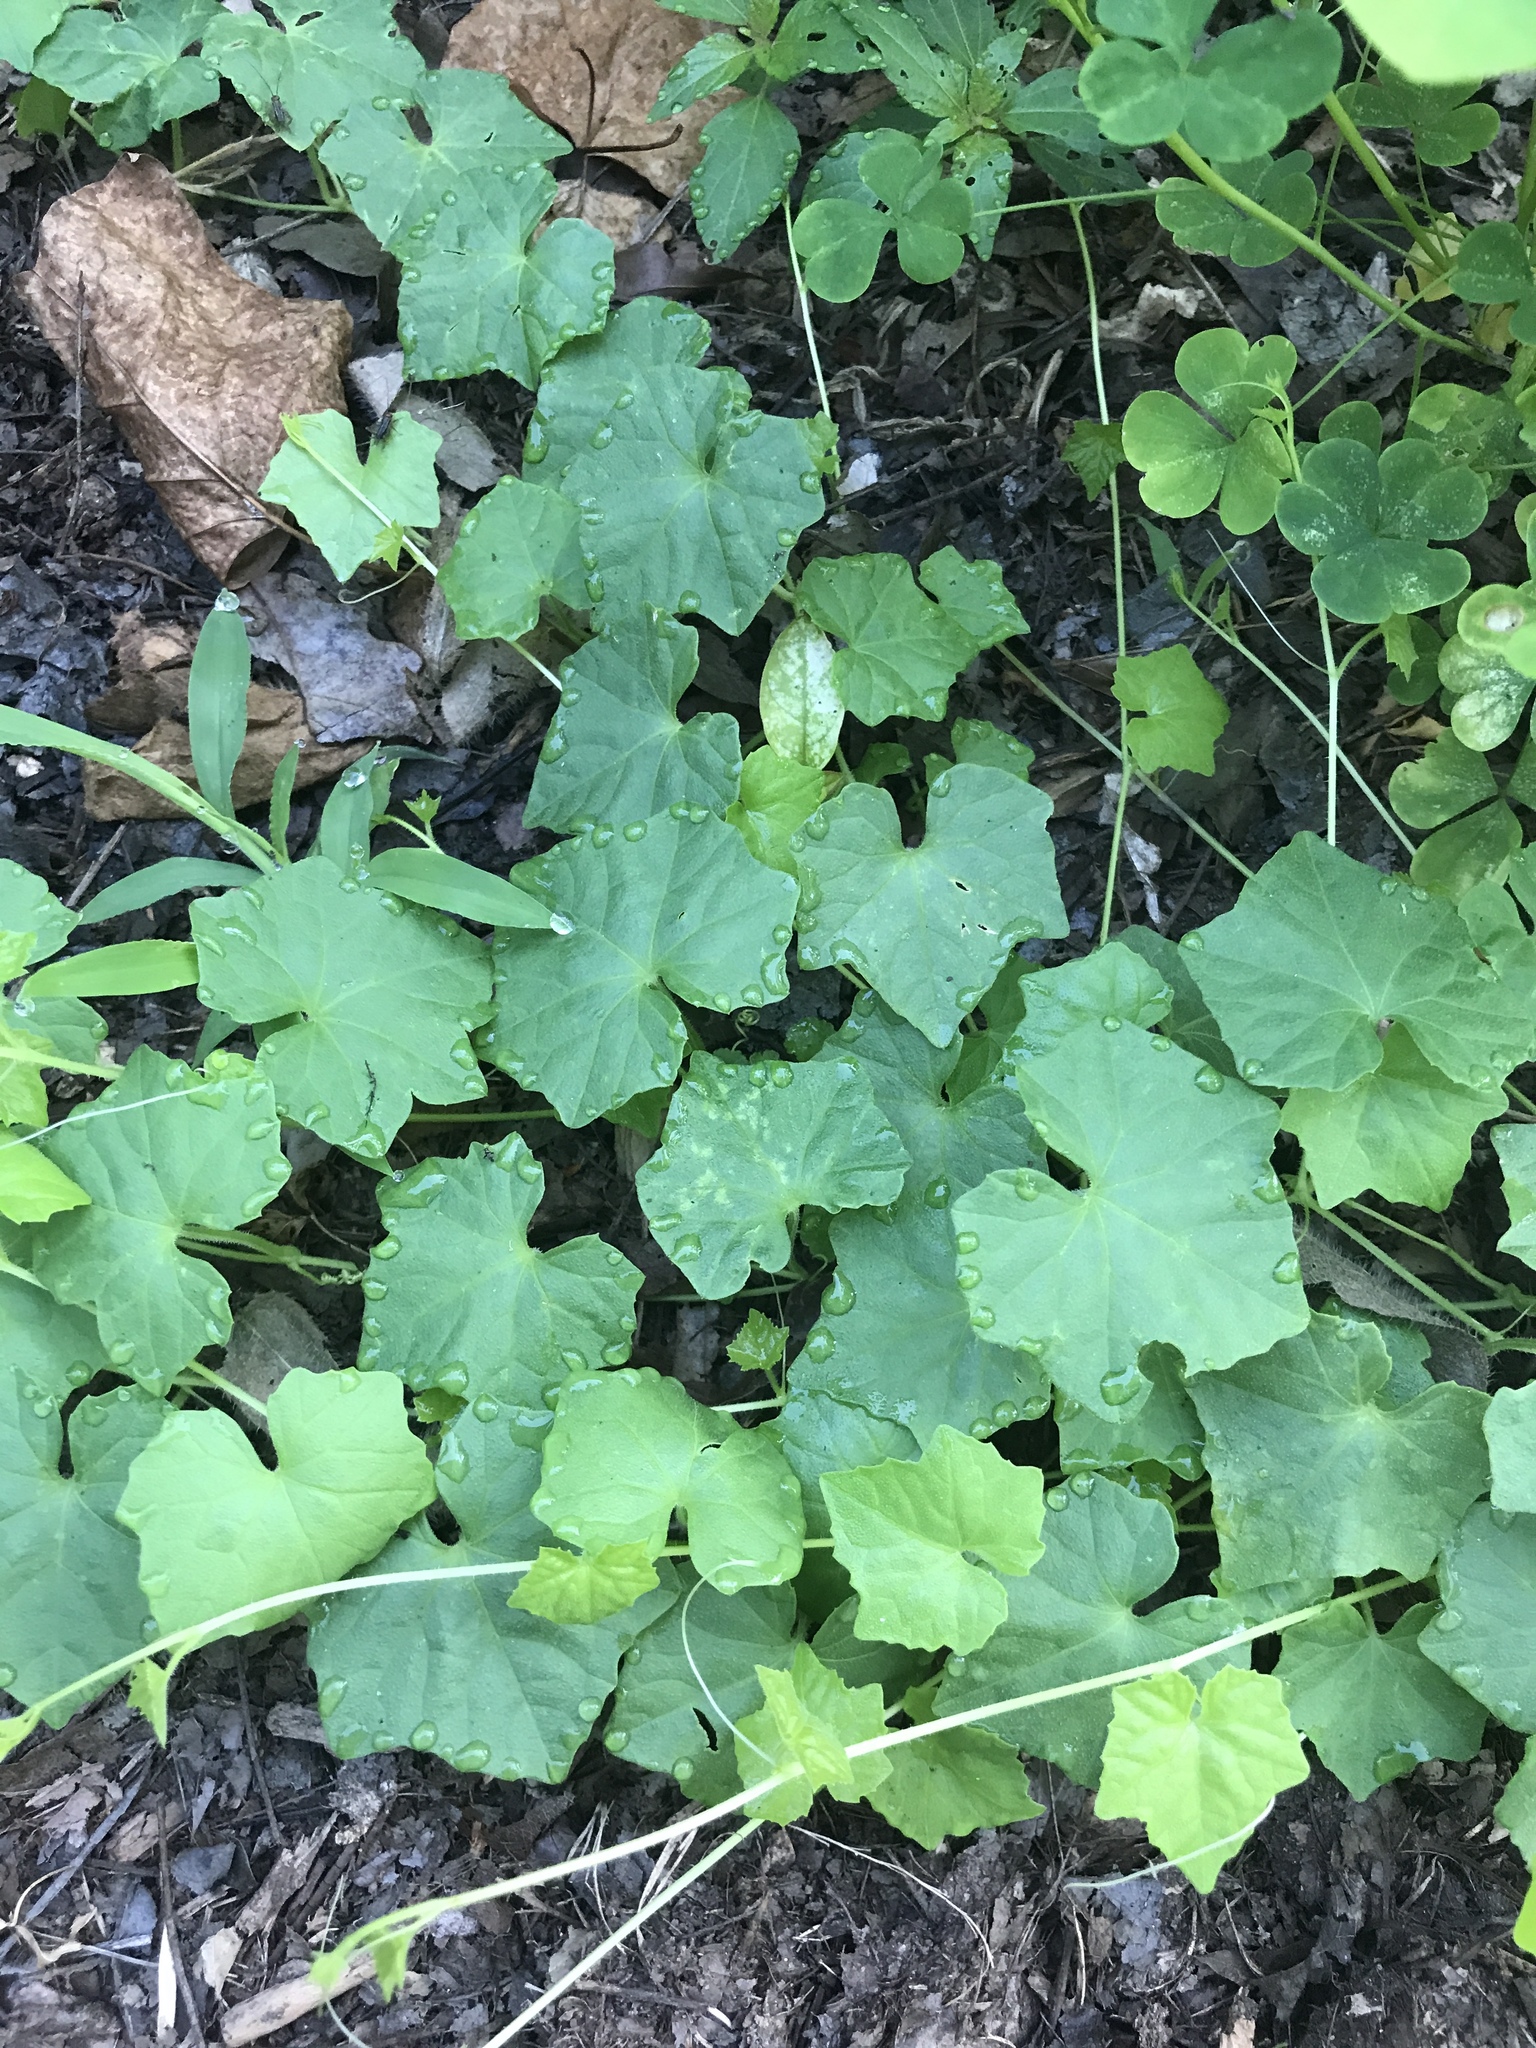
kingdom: Plantae
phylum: Tracheophyta
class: Magnoliopsida
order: Cucurbitales
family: Cucurbitaceae
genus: Melothria
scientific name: Melothria pendula
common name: Creeping-cucumber
